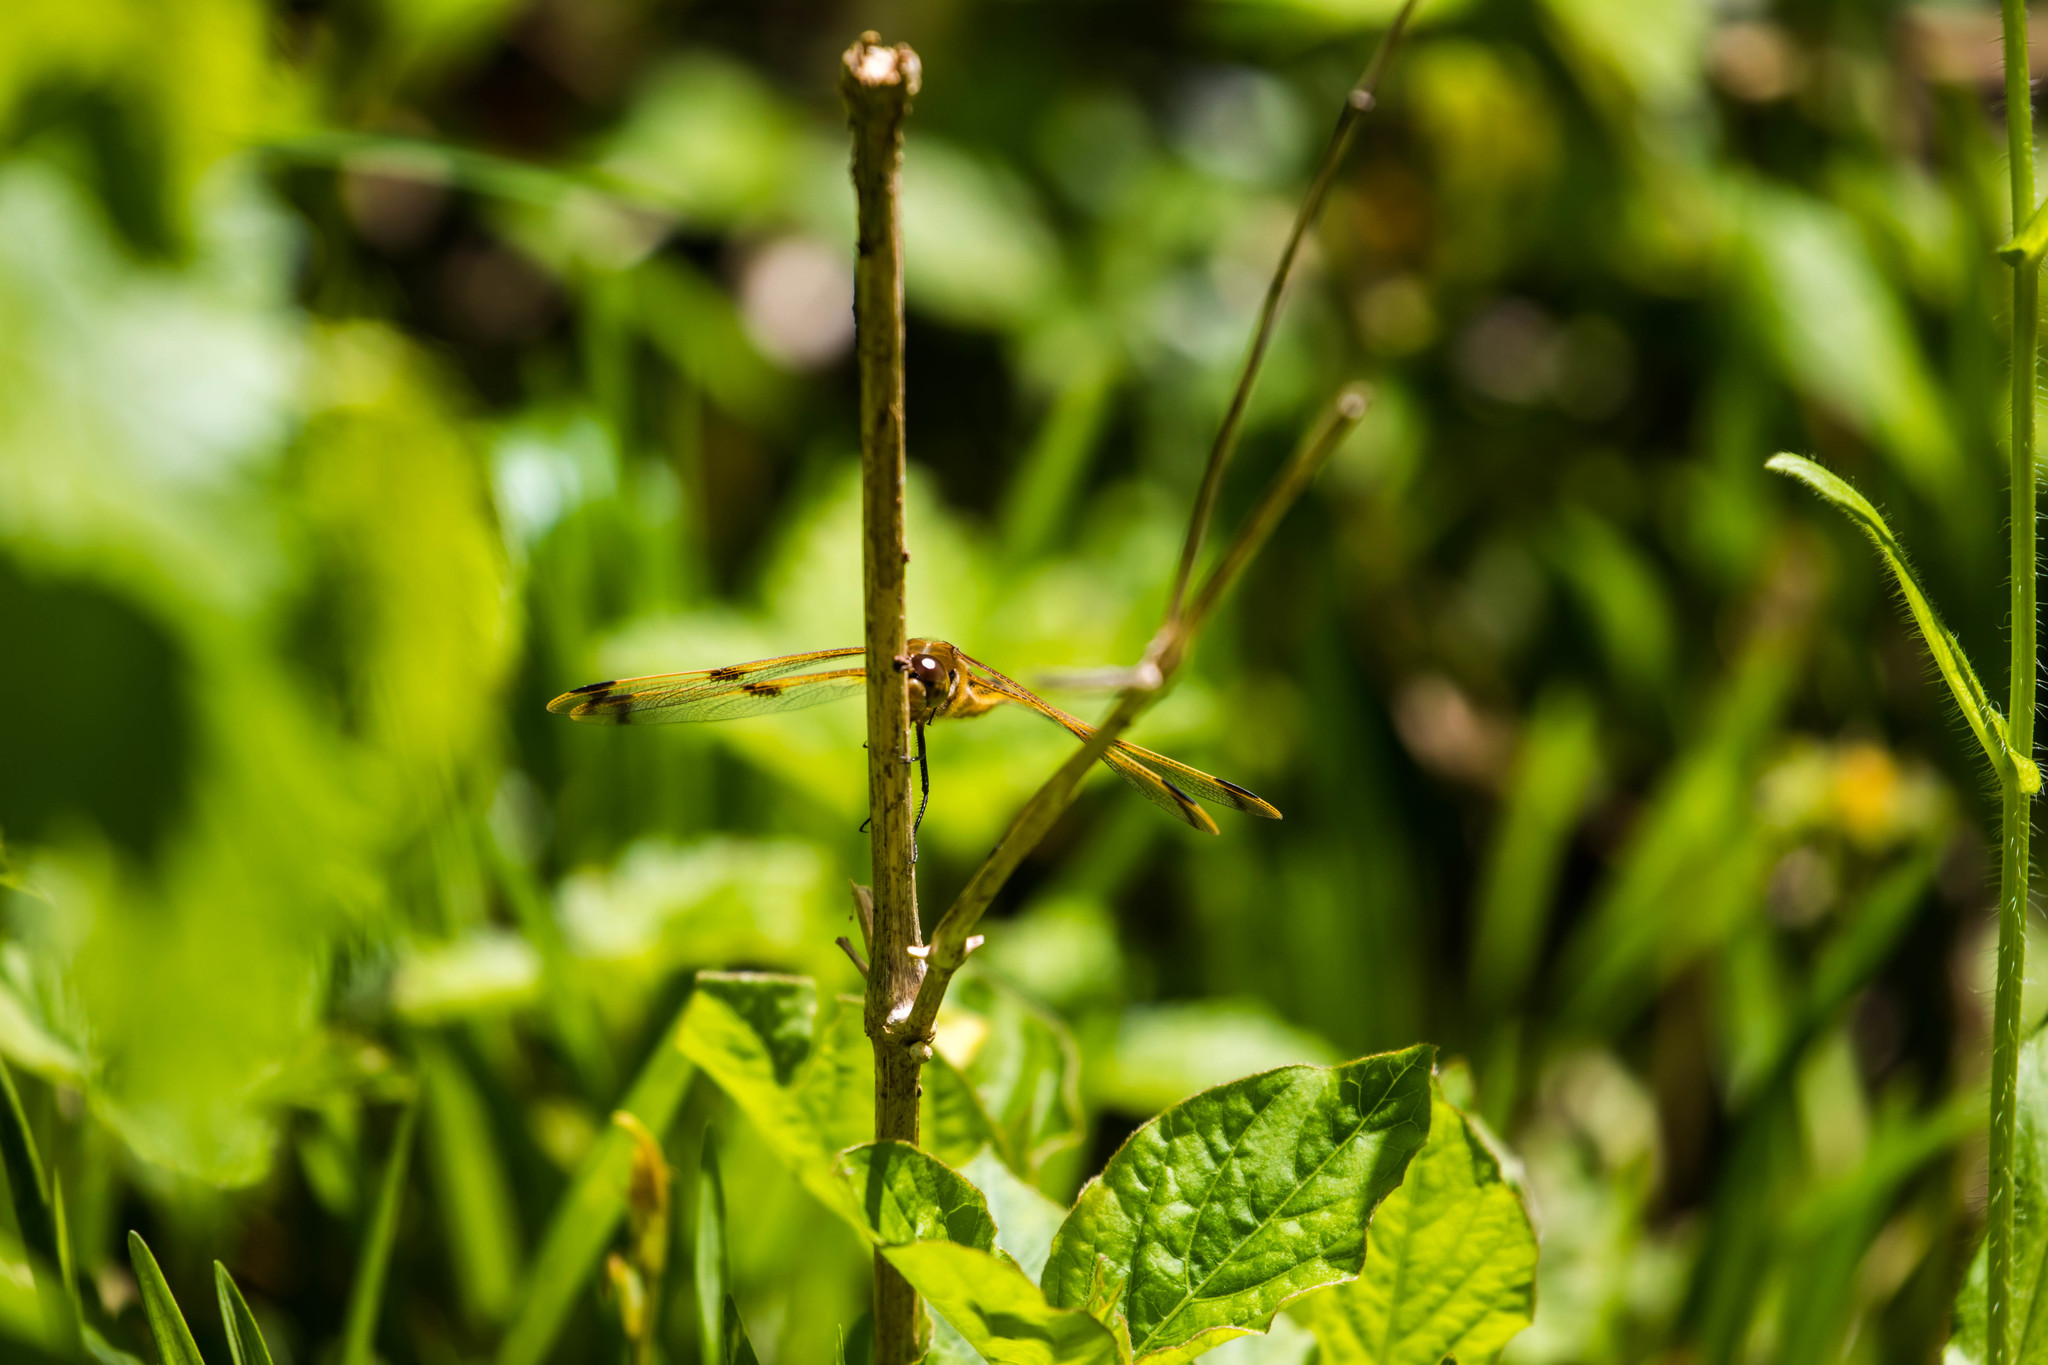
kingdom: Animalia
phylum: Arthropoda
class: Insecta
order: Odonata
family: Libellulidae
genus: Libellula
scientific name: Libellula semifasciata
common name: Painted skimmer
